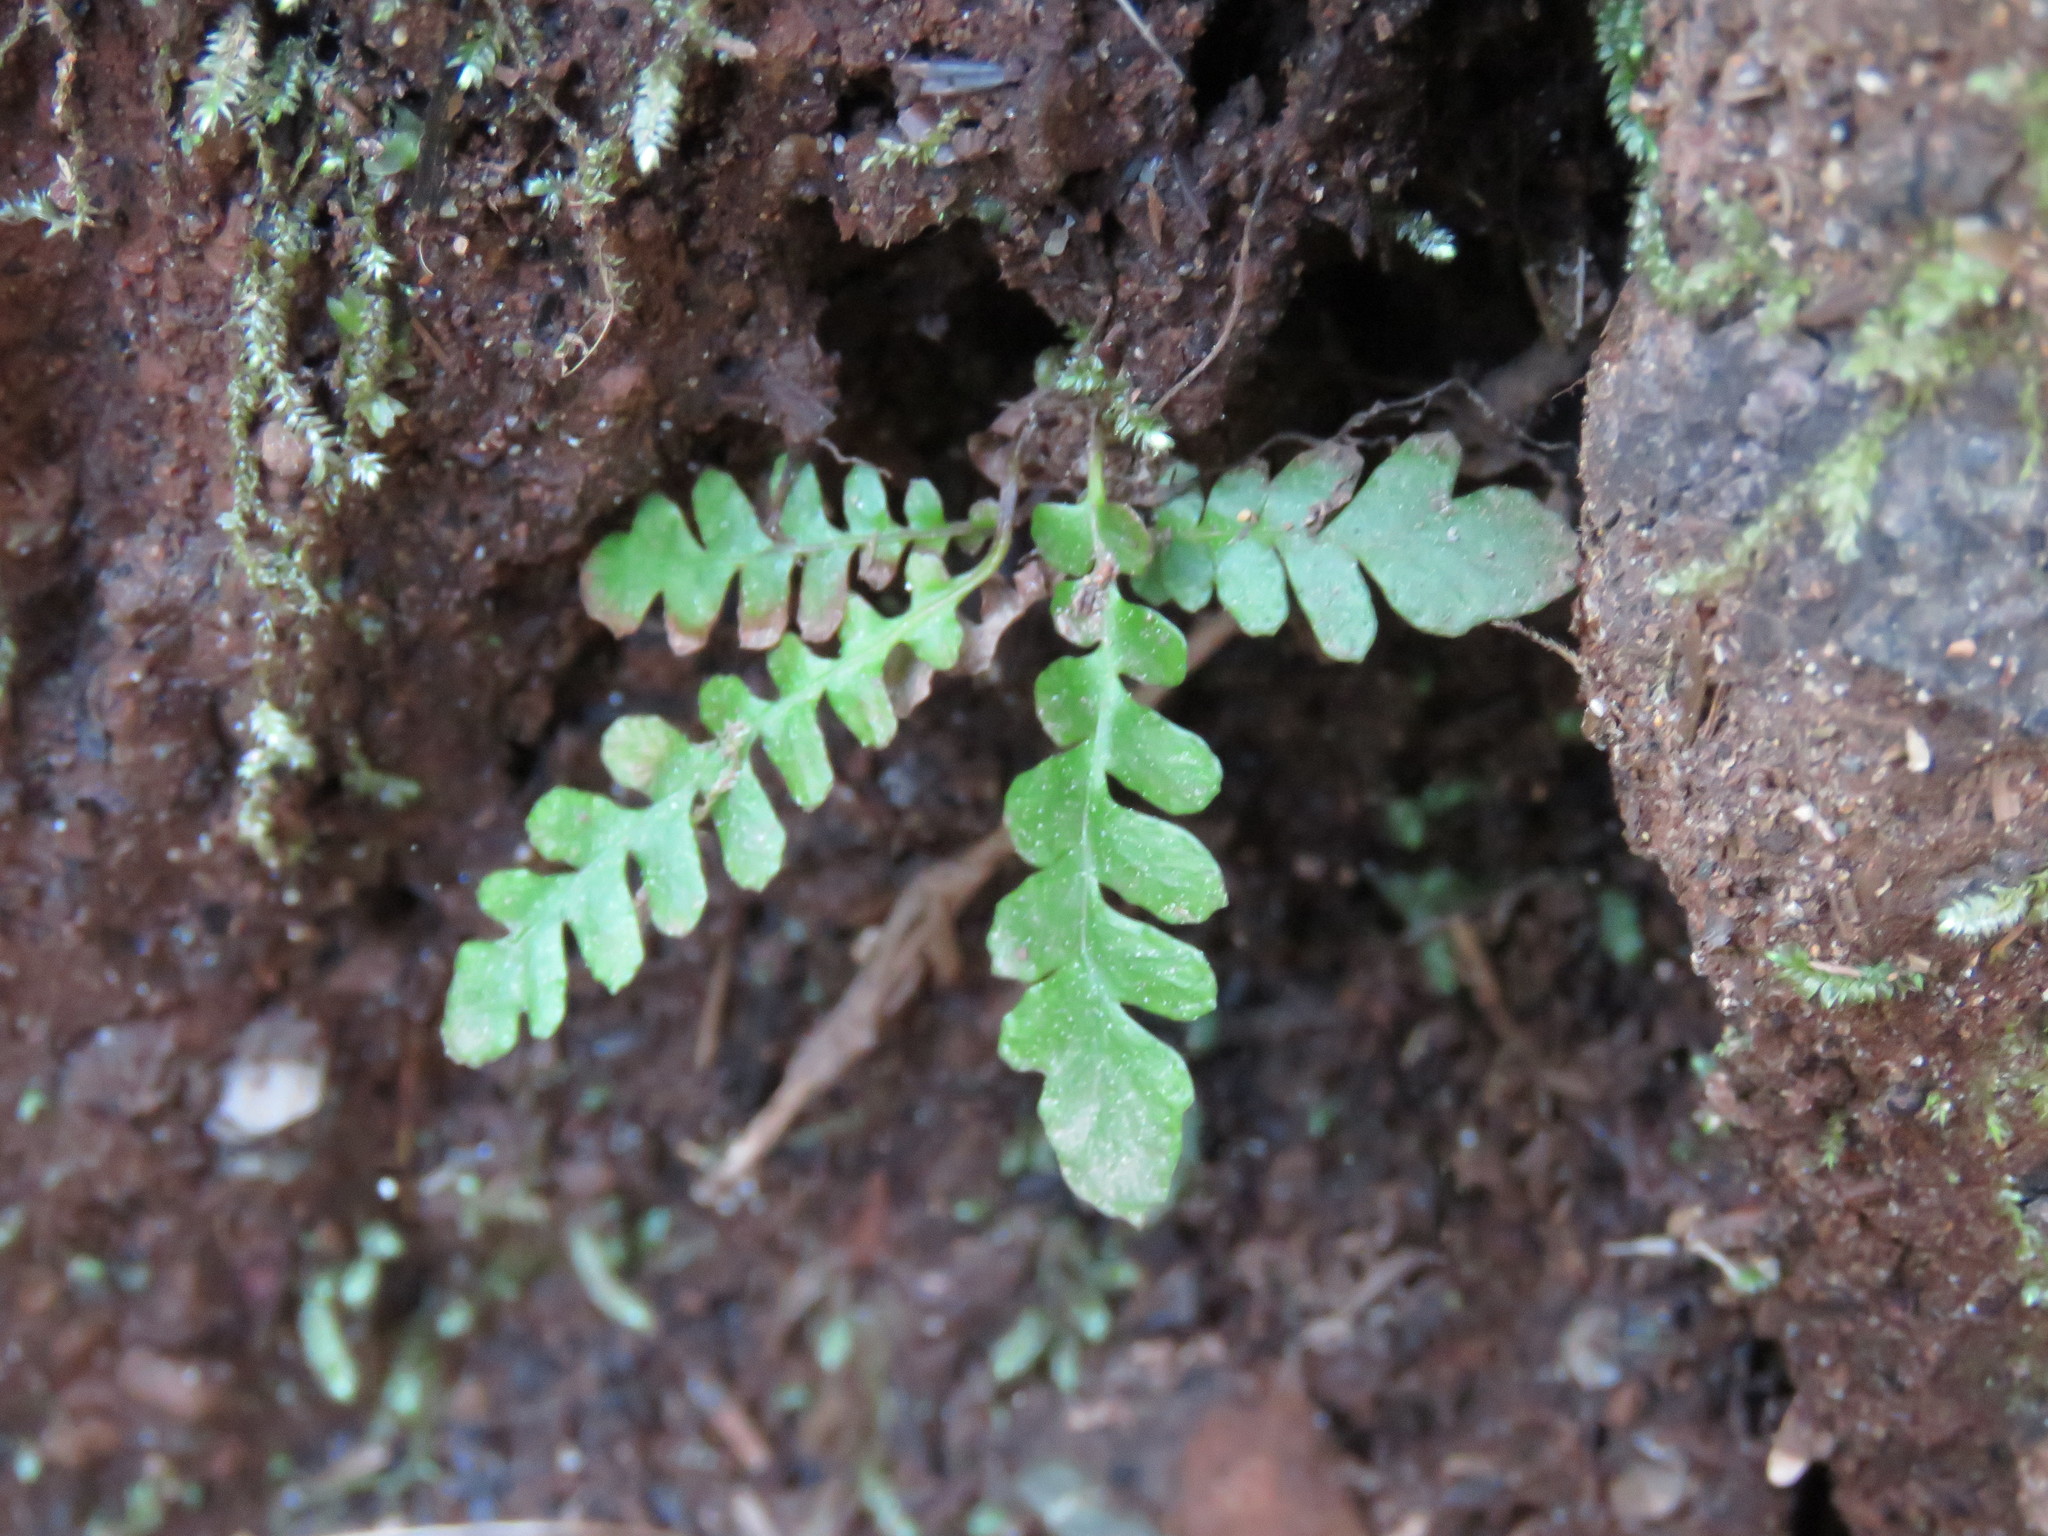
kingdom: Plantae
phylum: Tracheophyta
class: Polypodiopsida
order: Polypodiales
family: Blechnaceae
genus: Struthiopteris
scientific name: Struthiopteris spicant
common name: Deer fern
